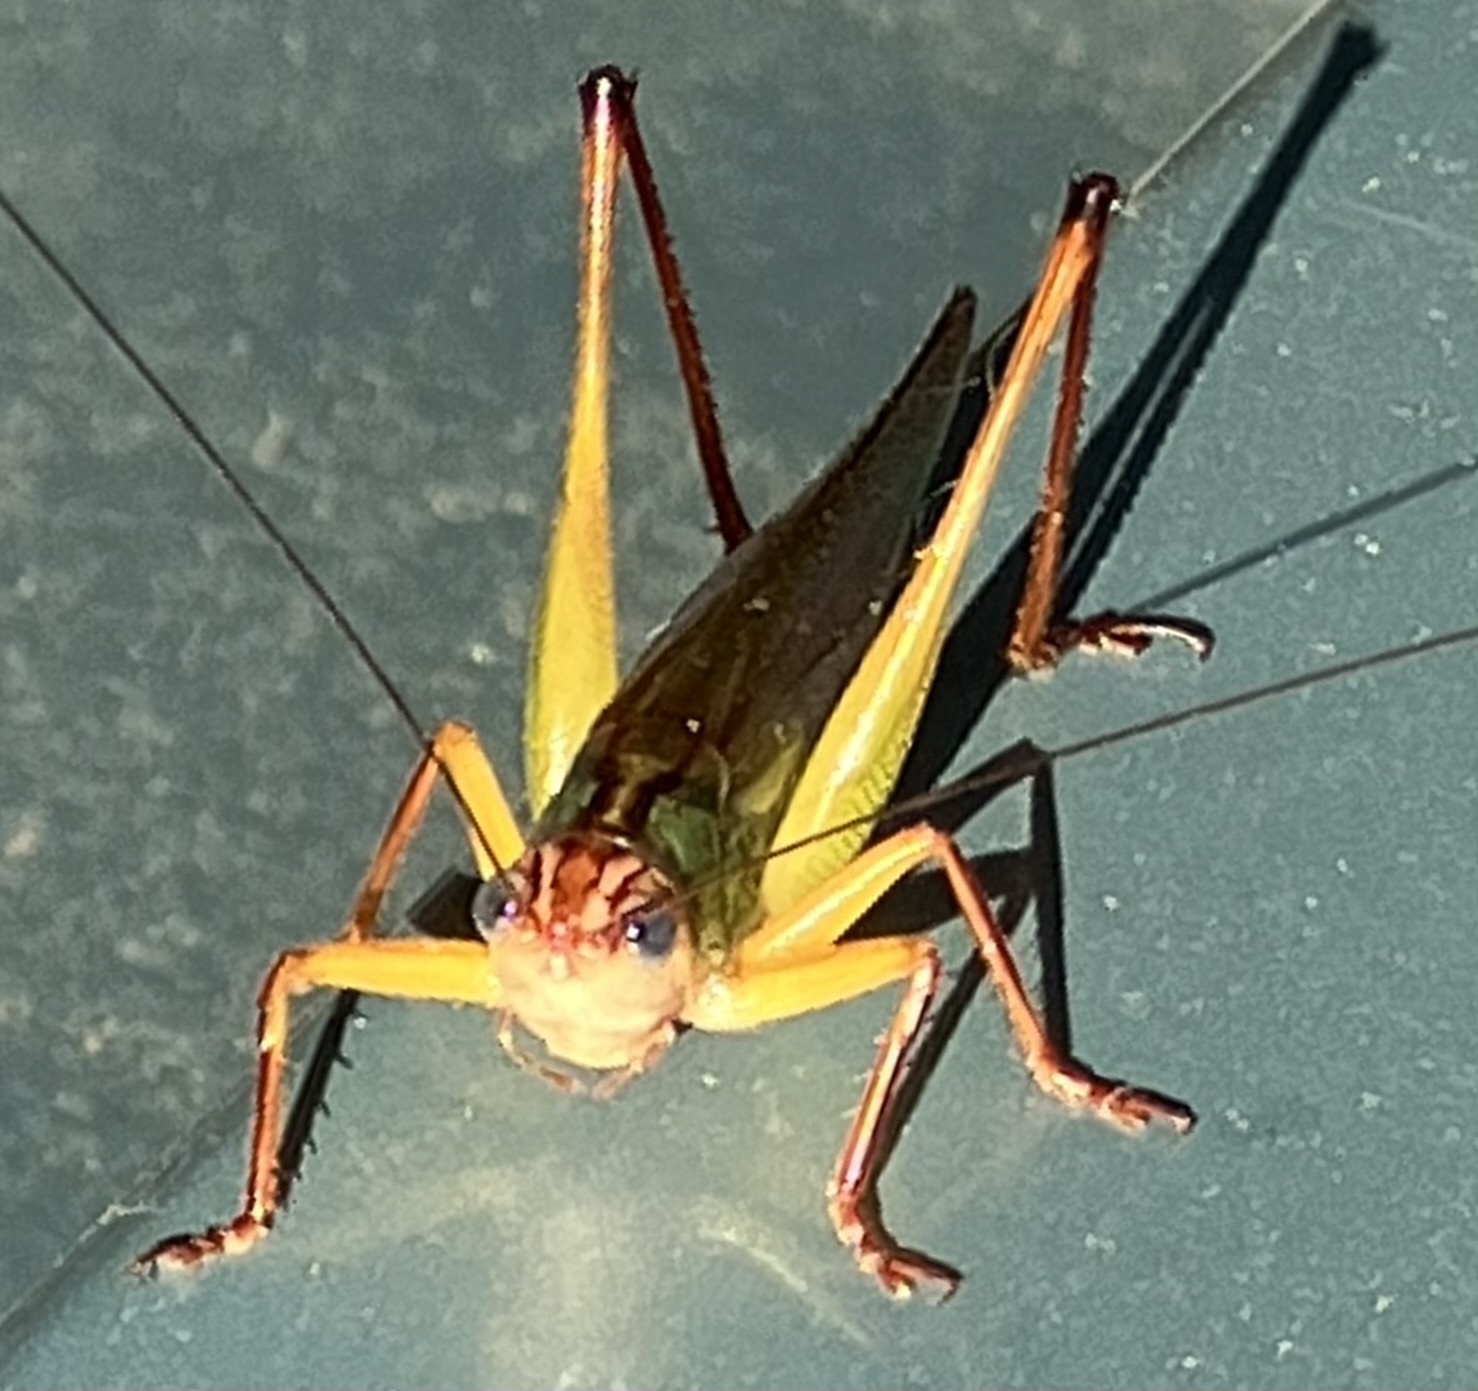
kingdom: Animalia
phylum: Arthropoda
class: Insecta
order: Orthoptera
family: Tettigoniidae
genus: Orchelimum
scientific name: Orchelimum pulchellum
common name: Handsome meadow katydid
